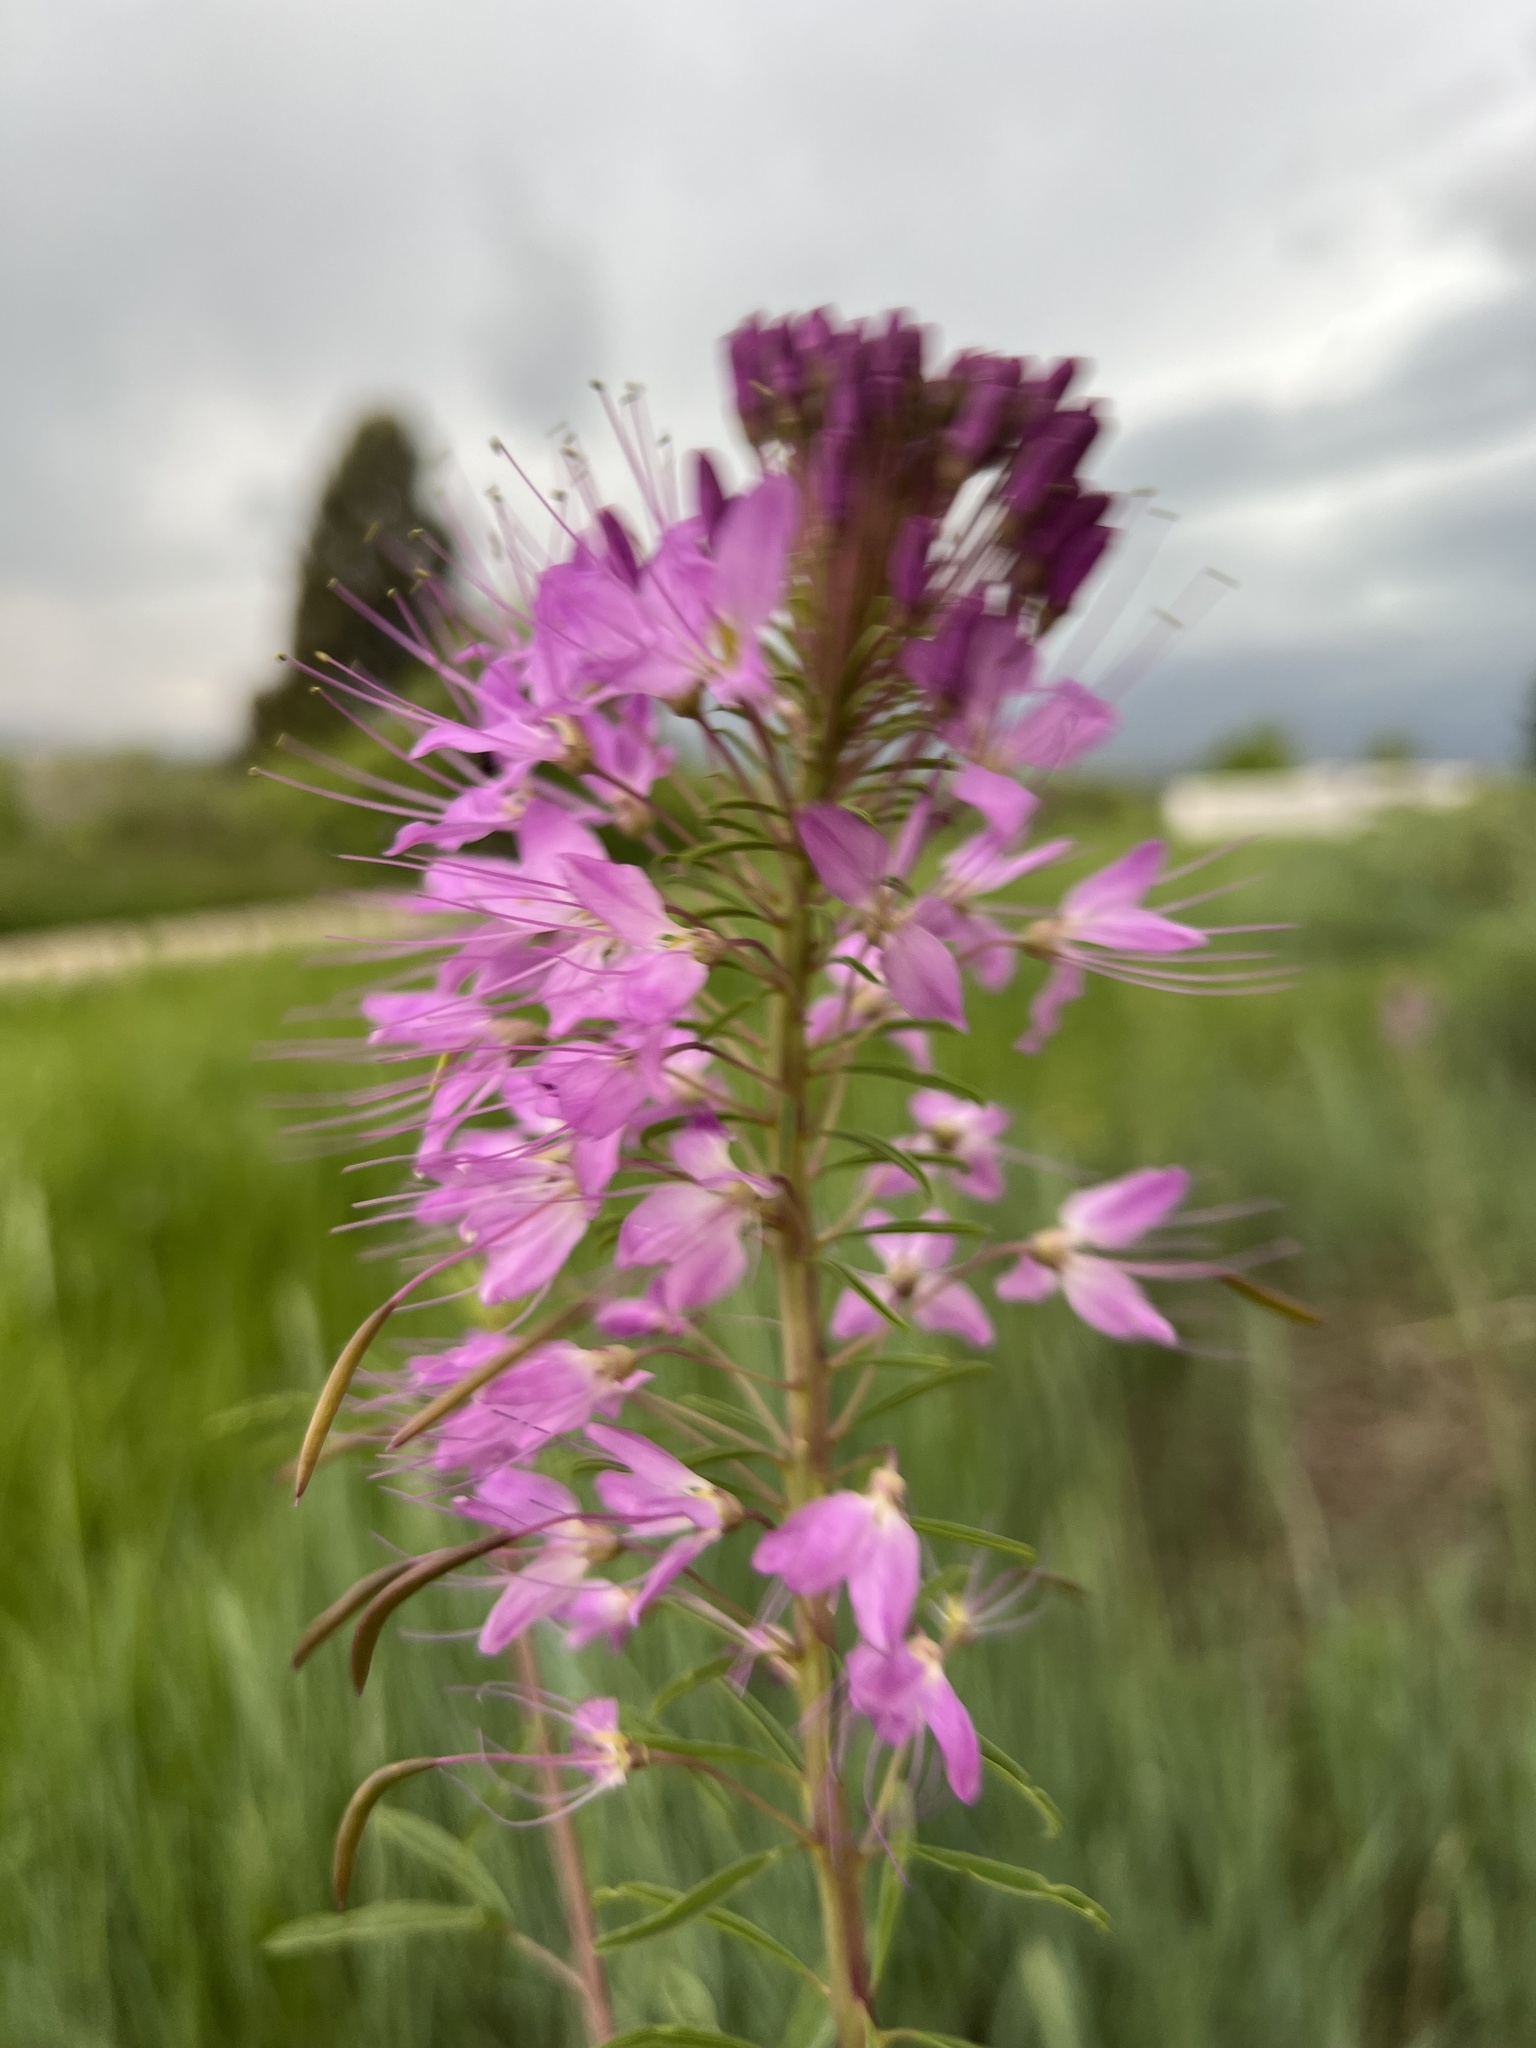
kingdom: Plantae
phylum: Tracheophyta
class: Magnoliopsida
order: Brassicales
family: Cleomaceae
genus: Cleomella
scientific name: Cleomella serrulata
